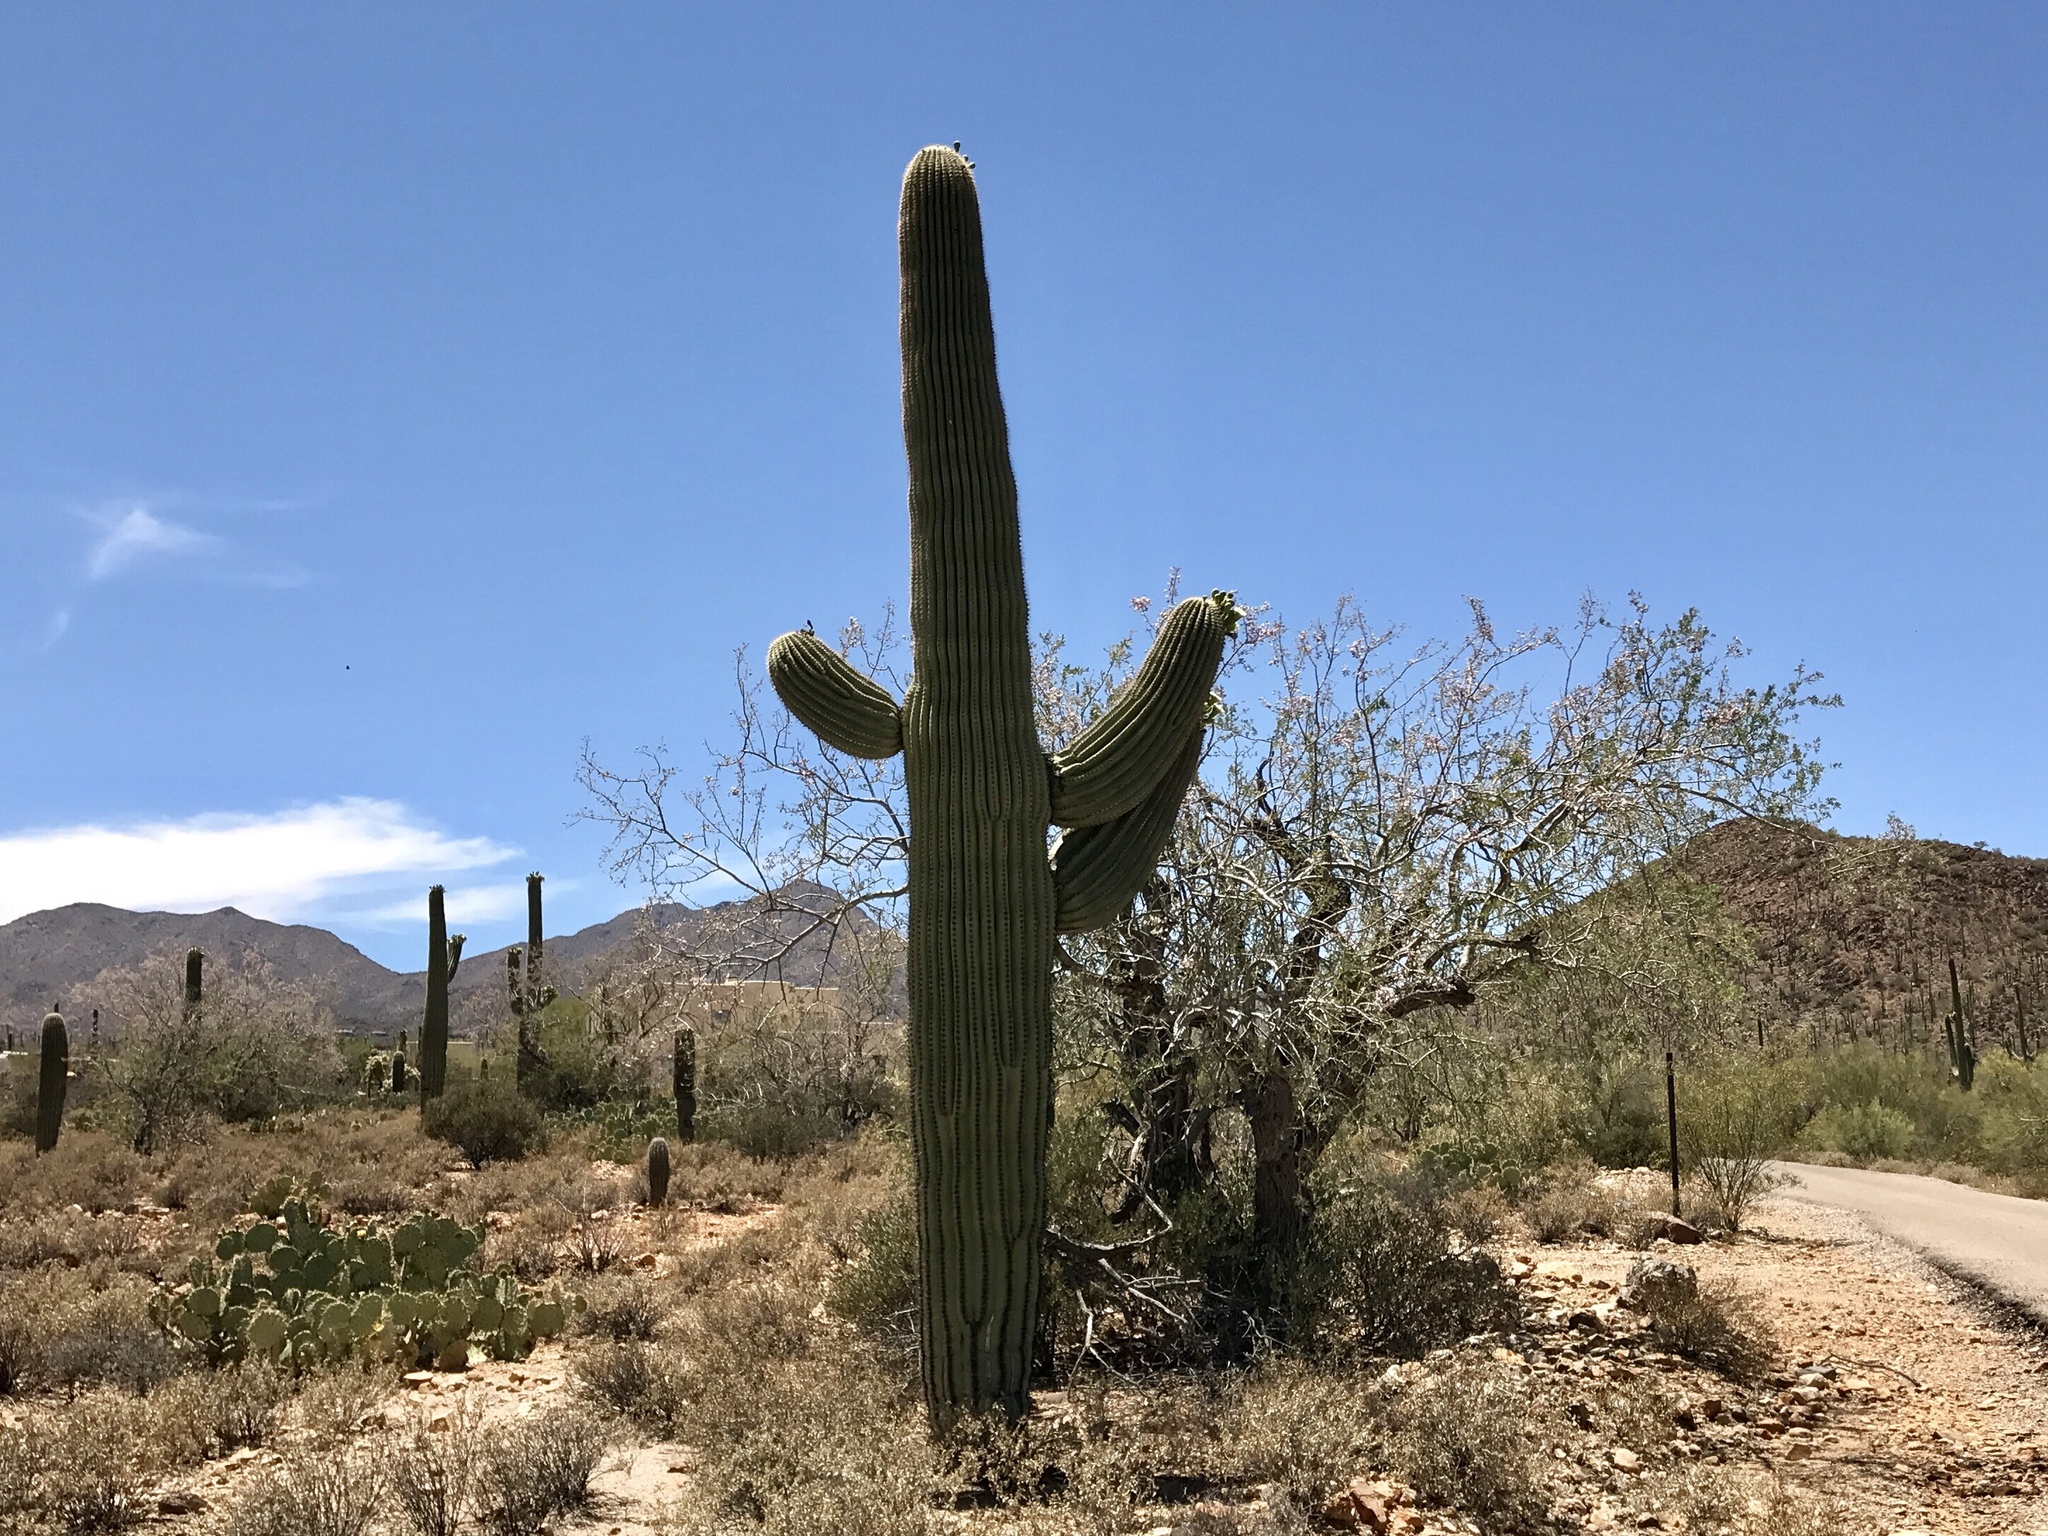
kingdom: Plantae
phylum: Tracheophyta
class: Magnoliopsida
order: Caryophyllales
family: Cactaceae
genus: Carnegiea
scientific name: Carnegiea gigantea
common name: Saguaro
